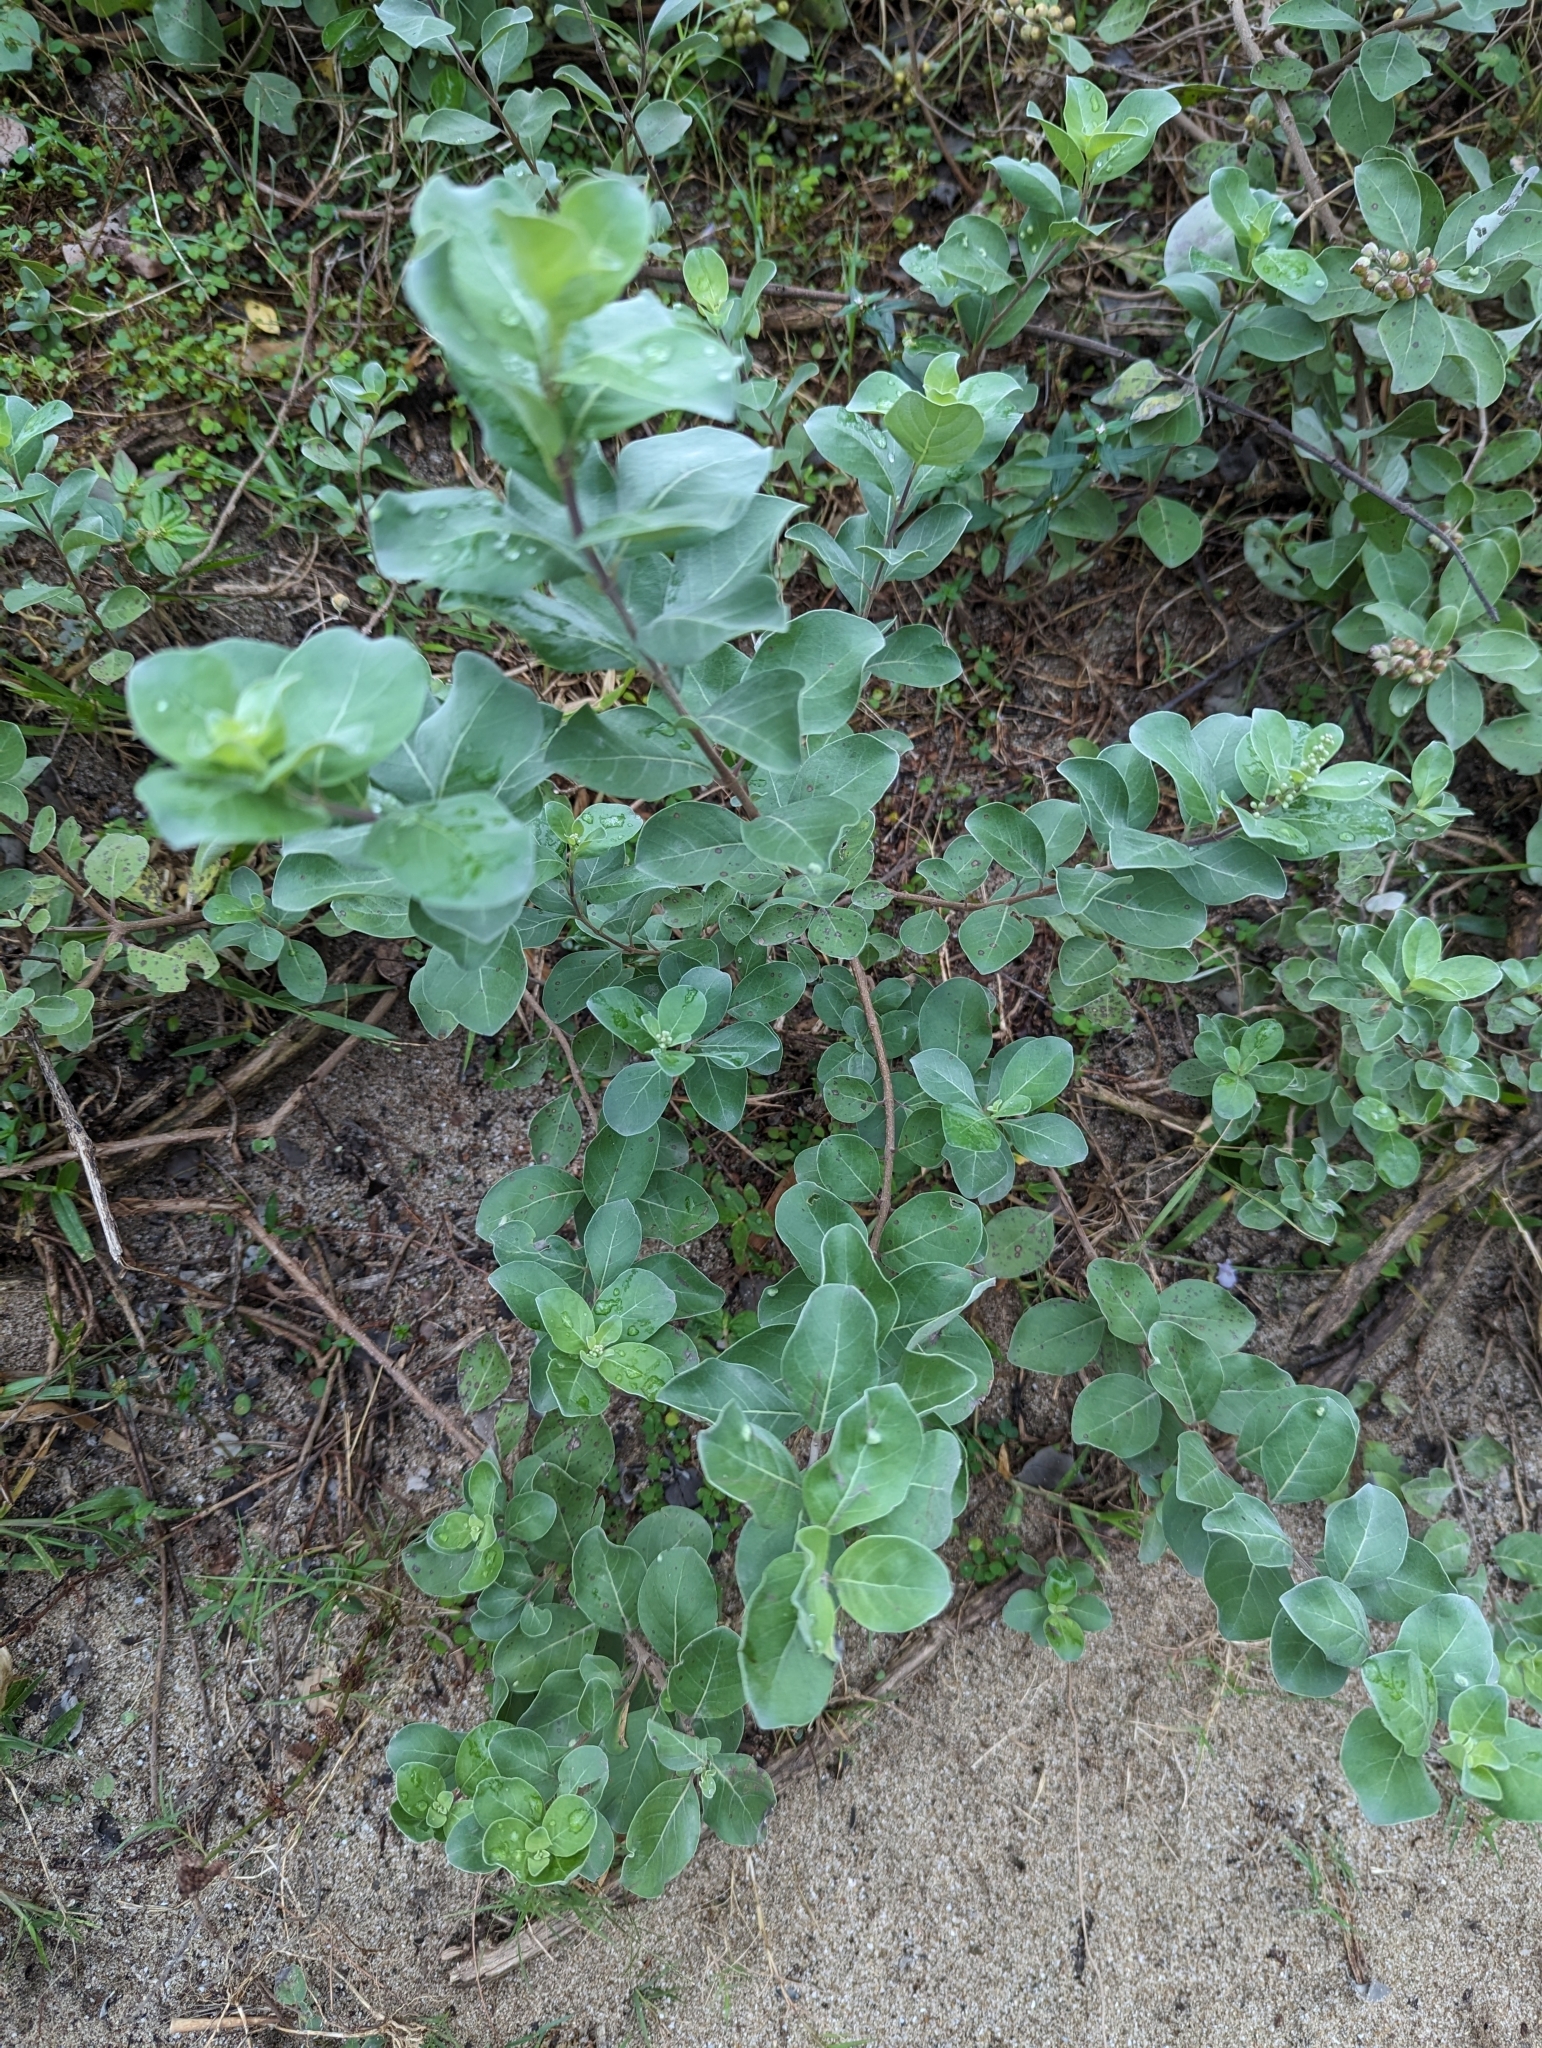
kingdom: Plantae
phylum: Tracheophyta
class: Magnoliopsida
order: Lamiales
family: Lamiaceae
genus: Vitex
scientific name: Vitex rotundifolia
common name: Beach vitex
